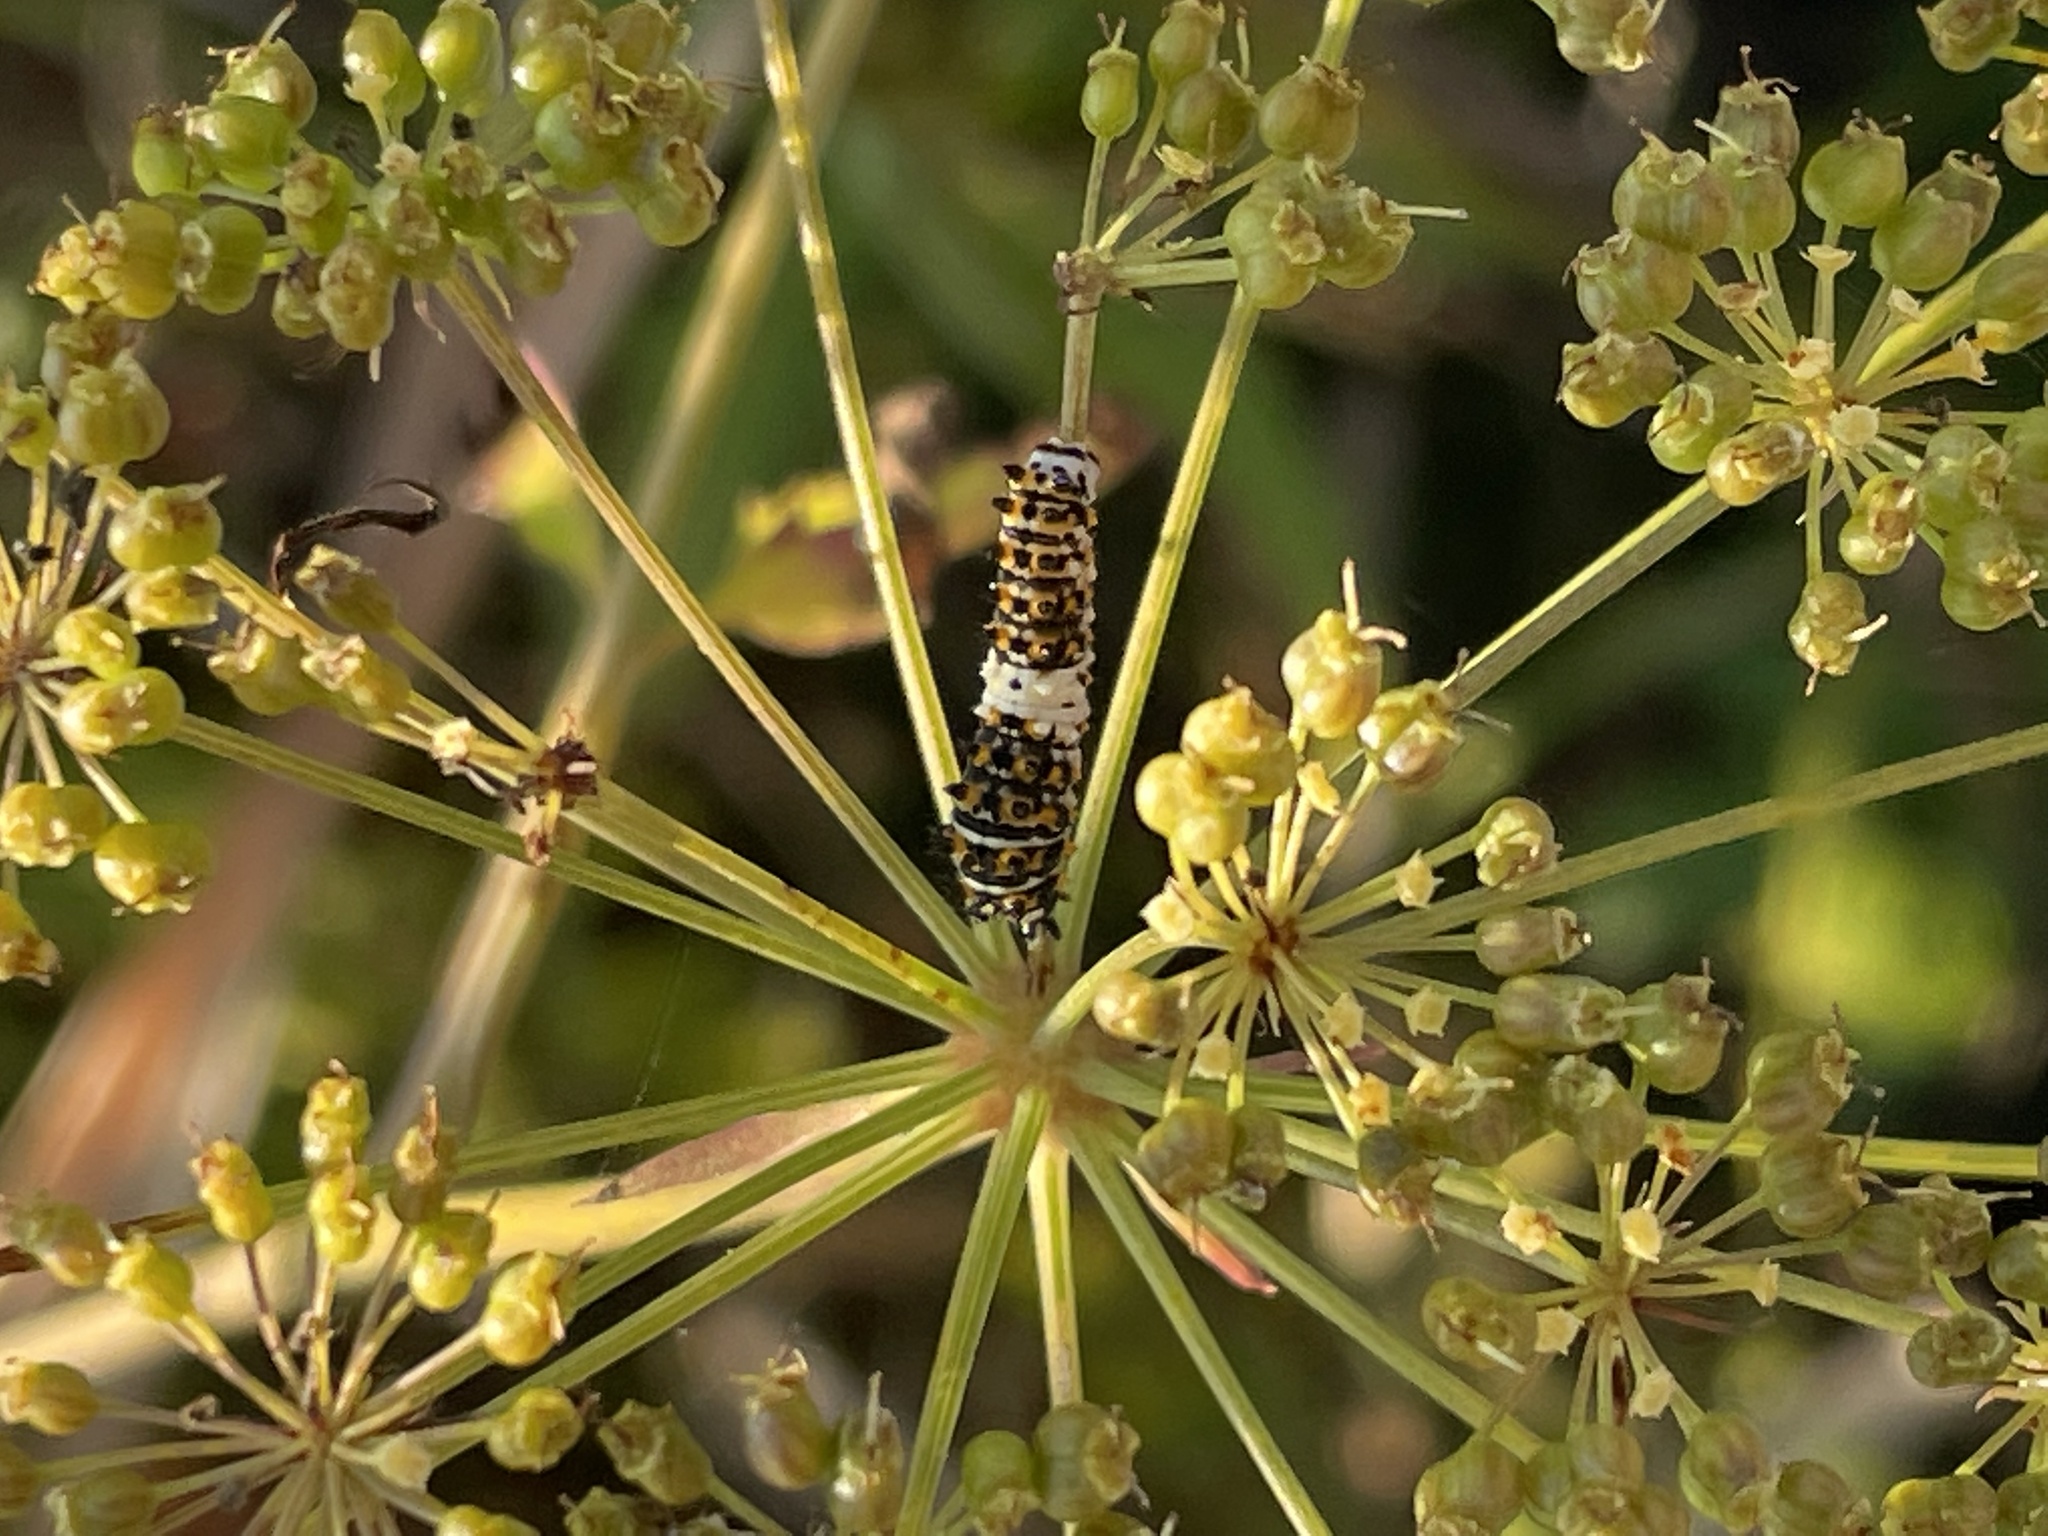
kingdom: Animalia
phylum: Arthropoda
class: Insecta
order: Lepidoptera
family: Papilionidae
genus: Papilio
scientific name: Papilio polyxenes
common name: Black swallowtail
